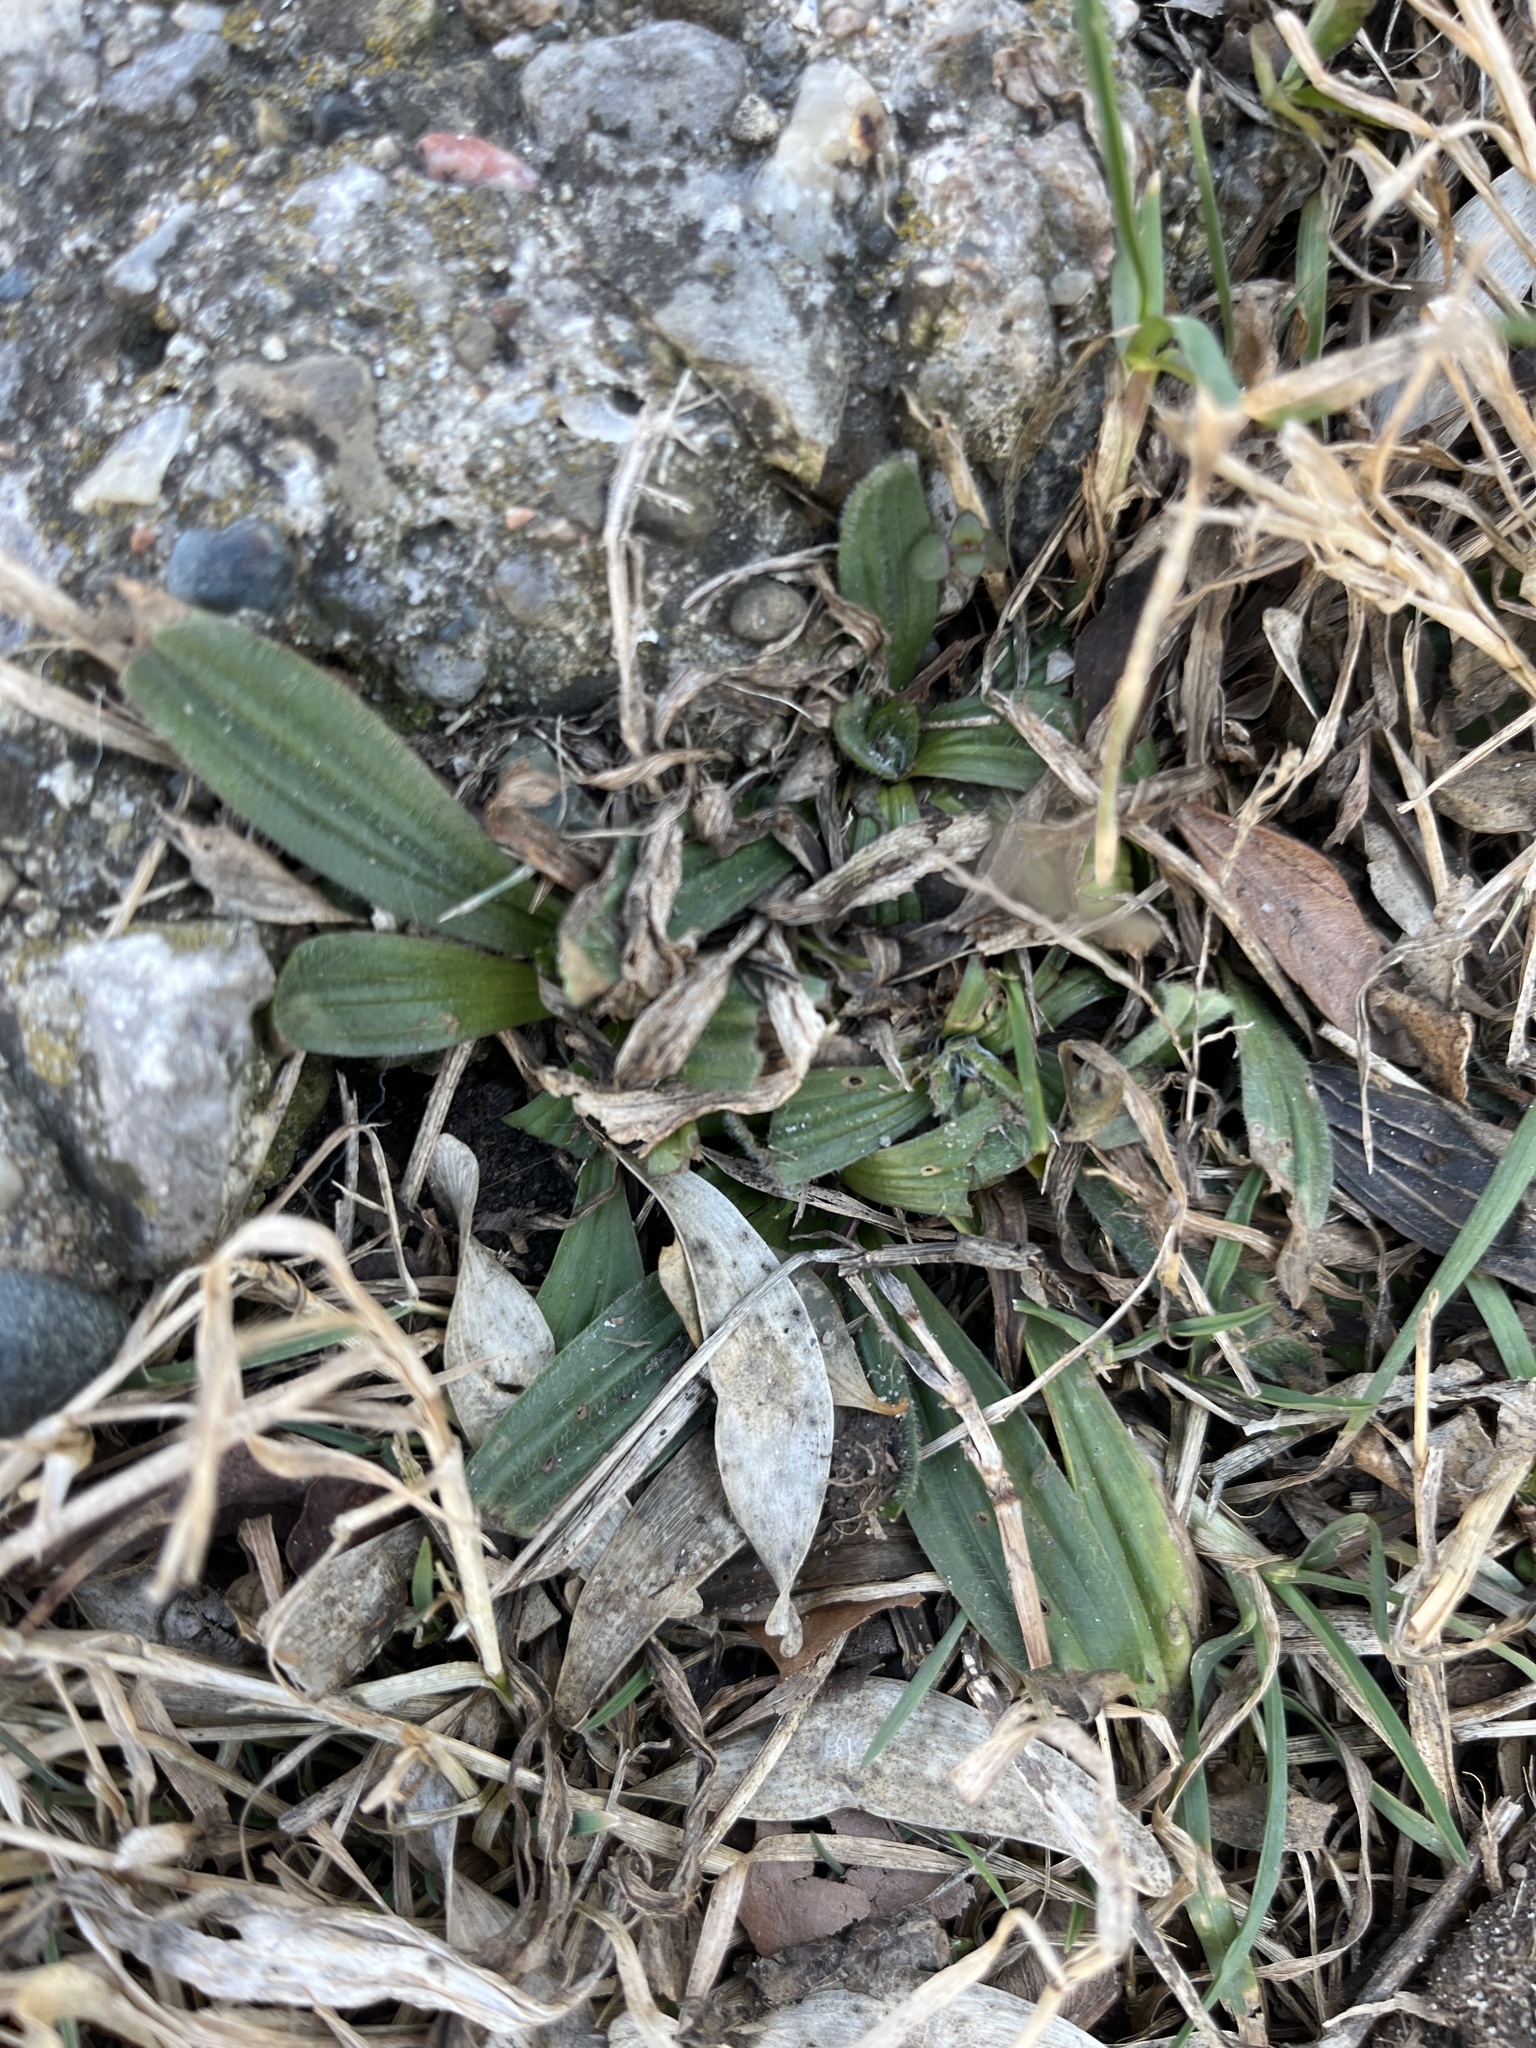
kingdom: Plantae
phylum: Tracheophyta
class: Magnoliopsida
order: Lamiales
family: Plantaginaceae
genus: Plantago
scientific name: Plantago lanceolata
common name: Ribwort plantain
